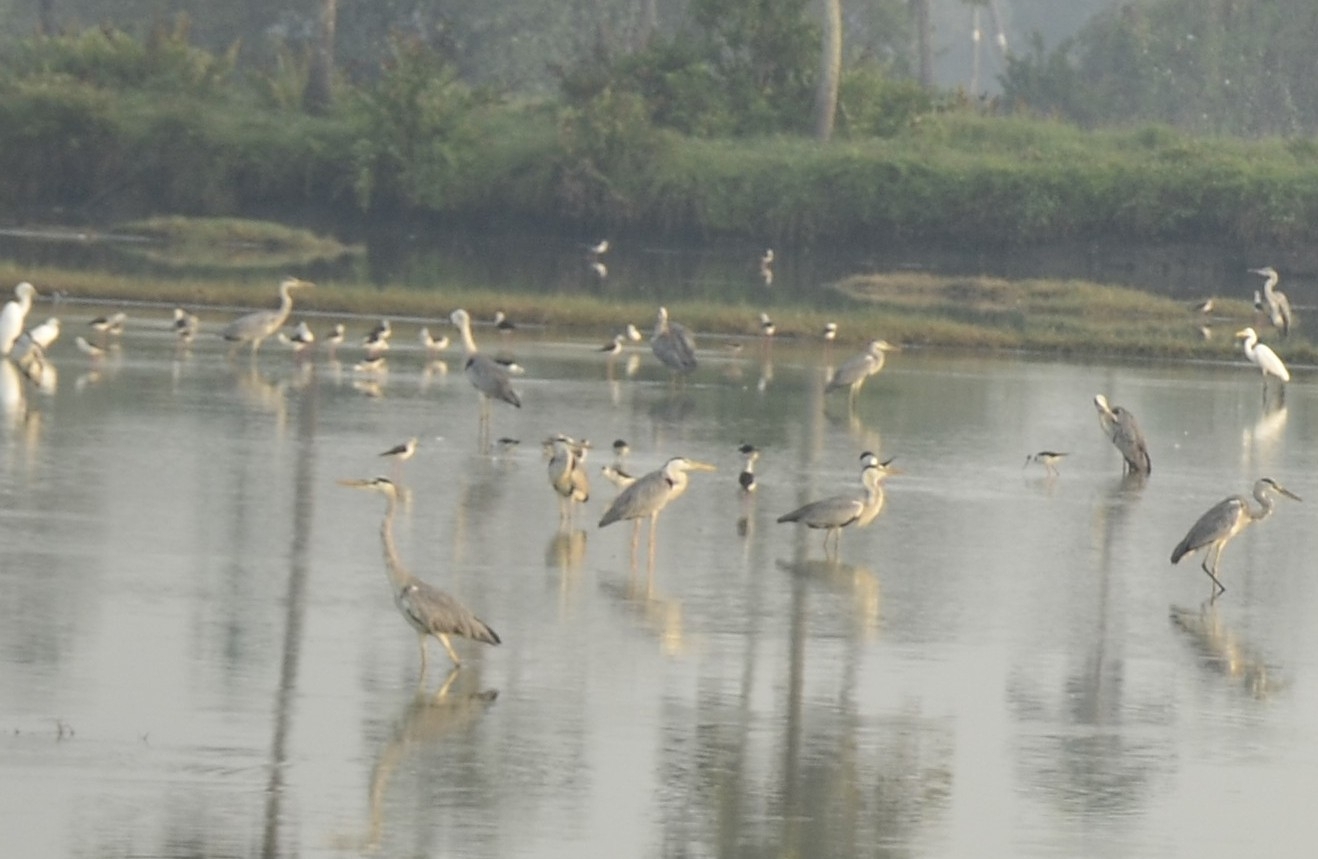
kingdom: Animalia
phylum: Chordata
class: Aves
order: Pelecaniformes
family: Ardeidae
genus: Ardea
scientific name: Ardea cinerea
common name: Grey heron
